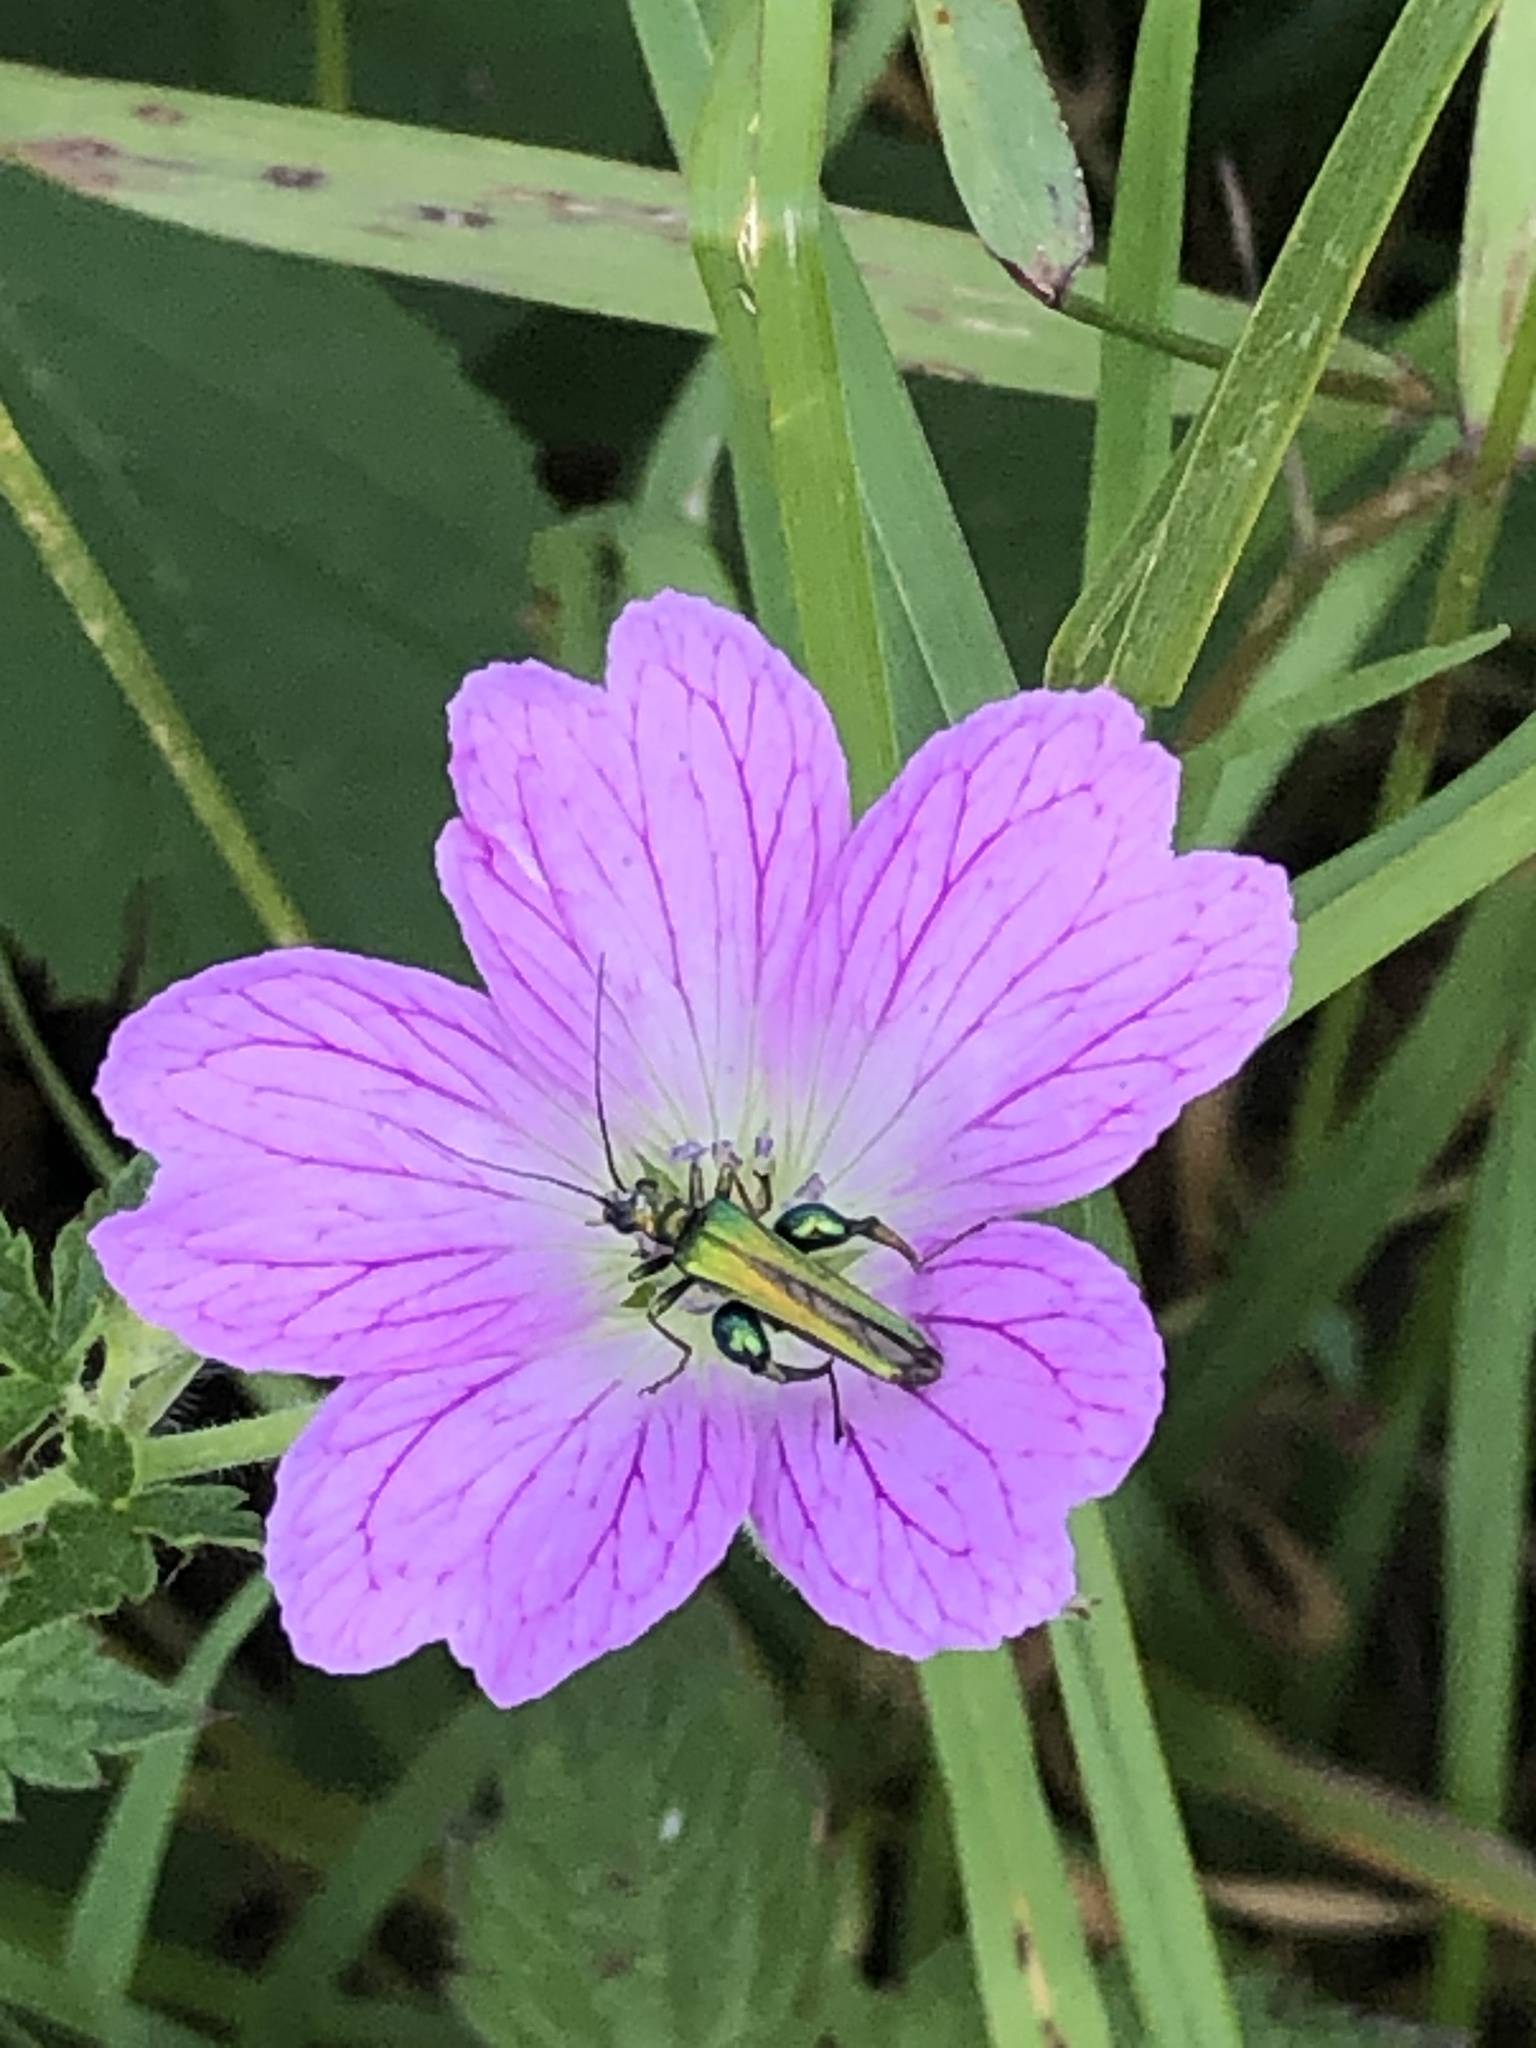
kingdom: Animalia
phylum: Arthropoda
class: Insecta
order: Coleoptera
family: Oedemeridae
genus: Oedemera
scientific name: Oedemera nobilis
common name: Swollen-thighed beetle
